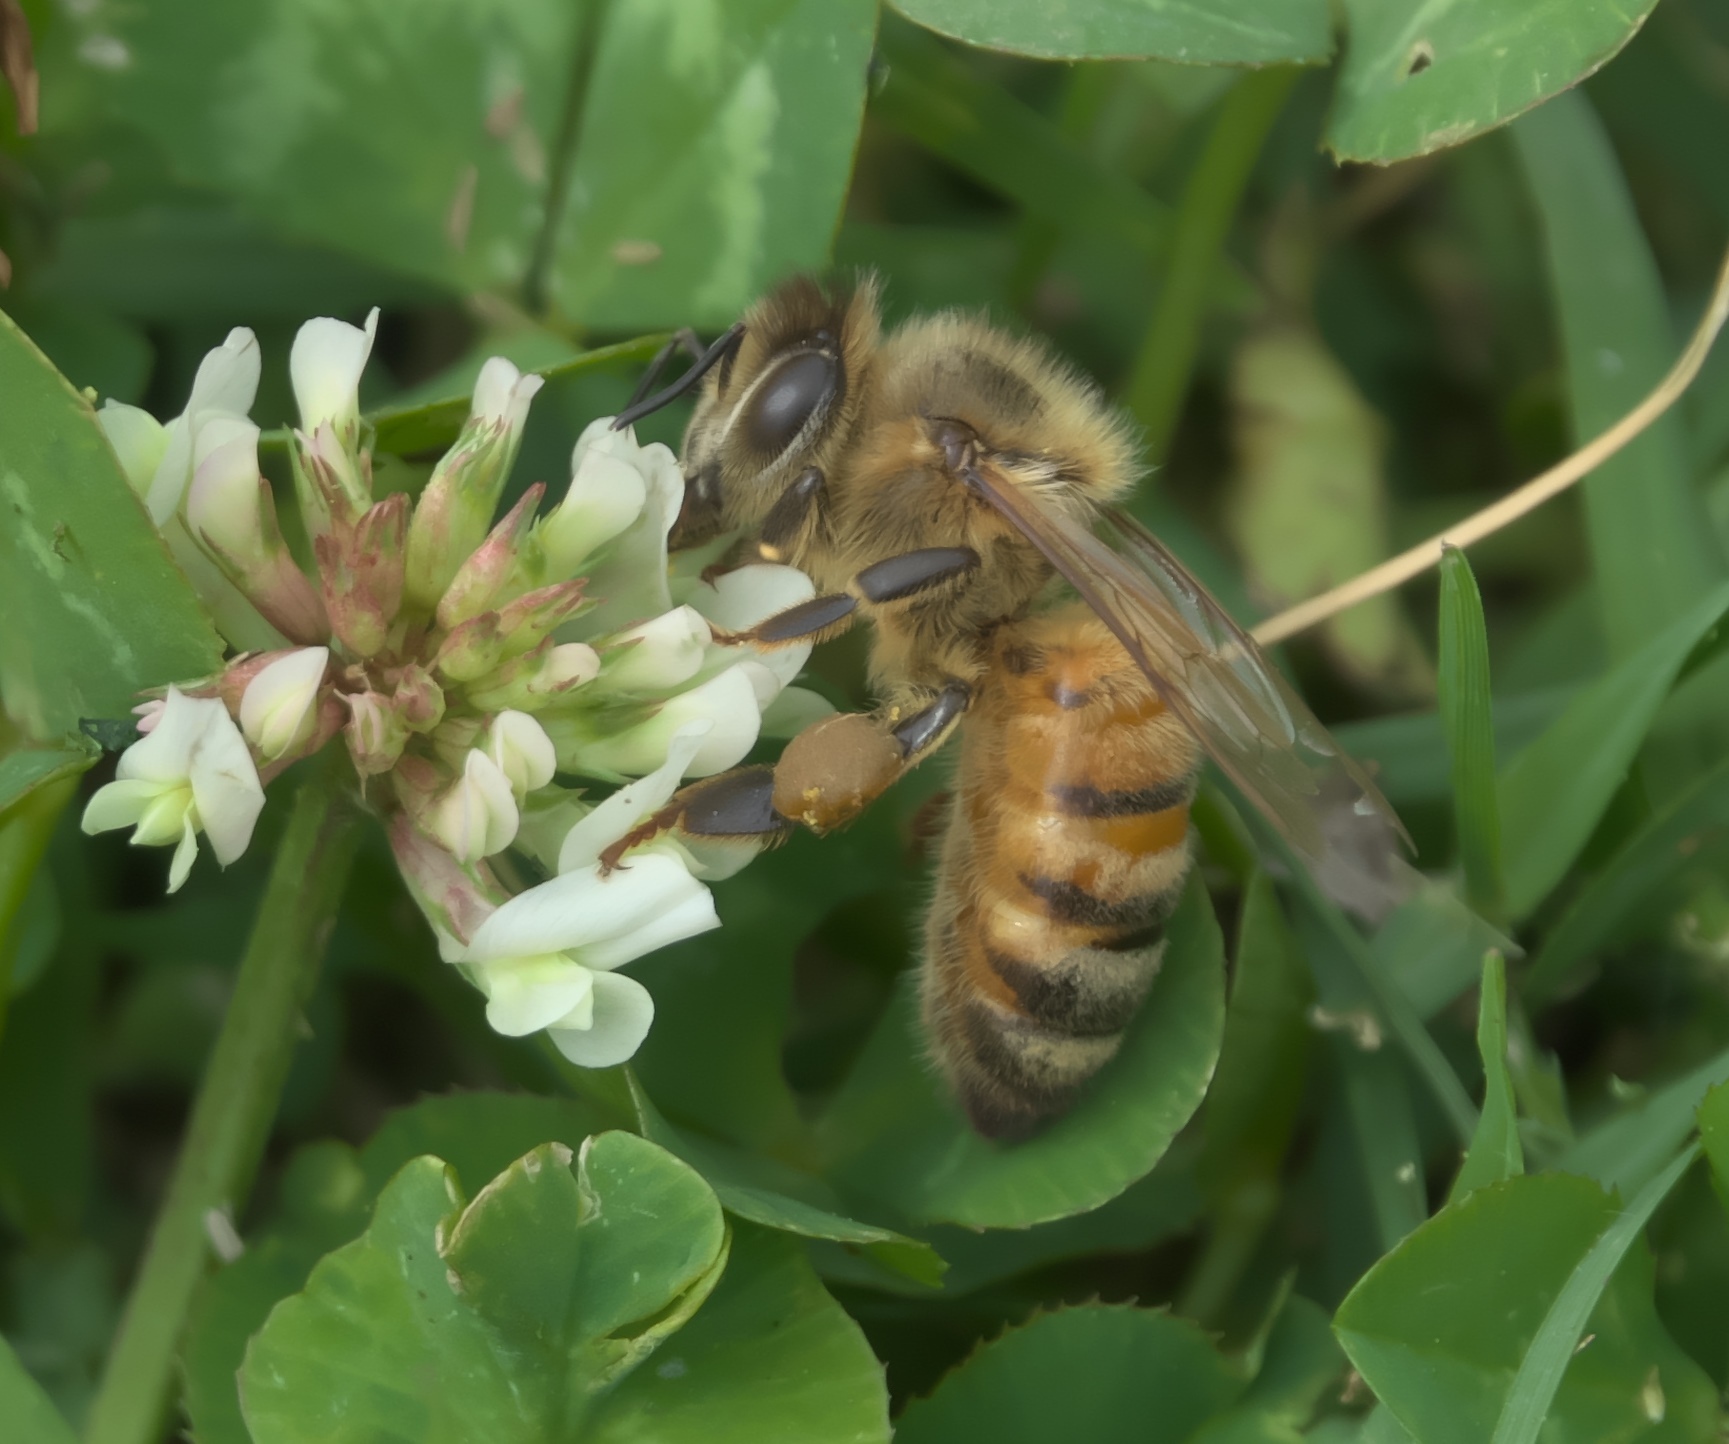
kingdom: Animalia
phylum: Arthropoda
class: Insecta
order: Hymenoptera
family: Apidae
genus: Apis
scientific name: Apis mellifera
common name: Honey bee
